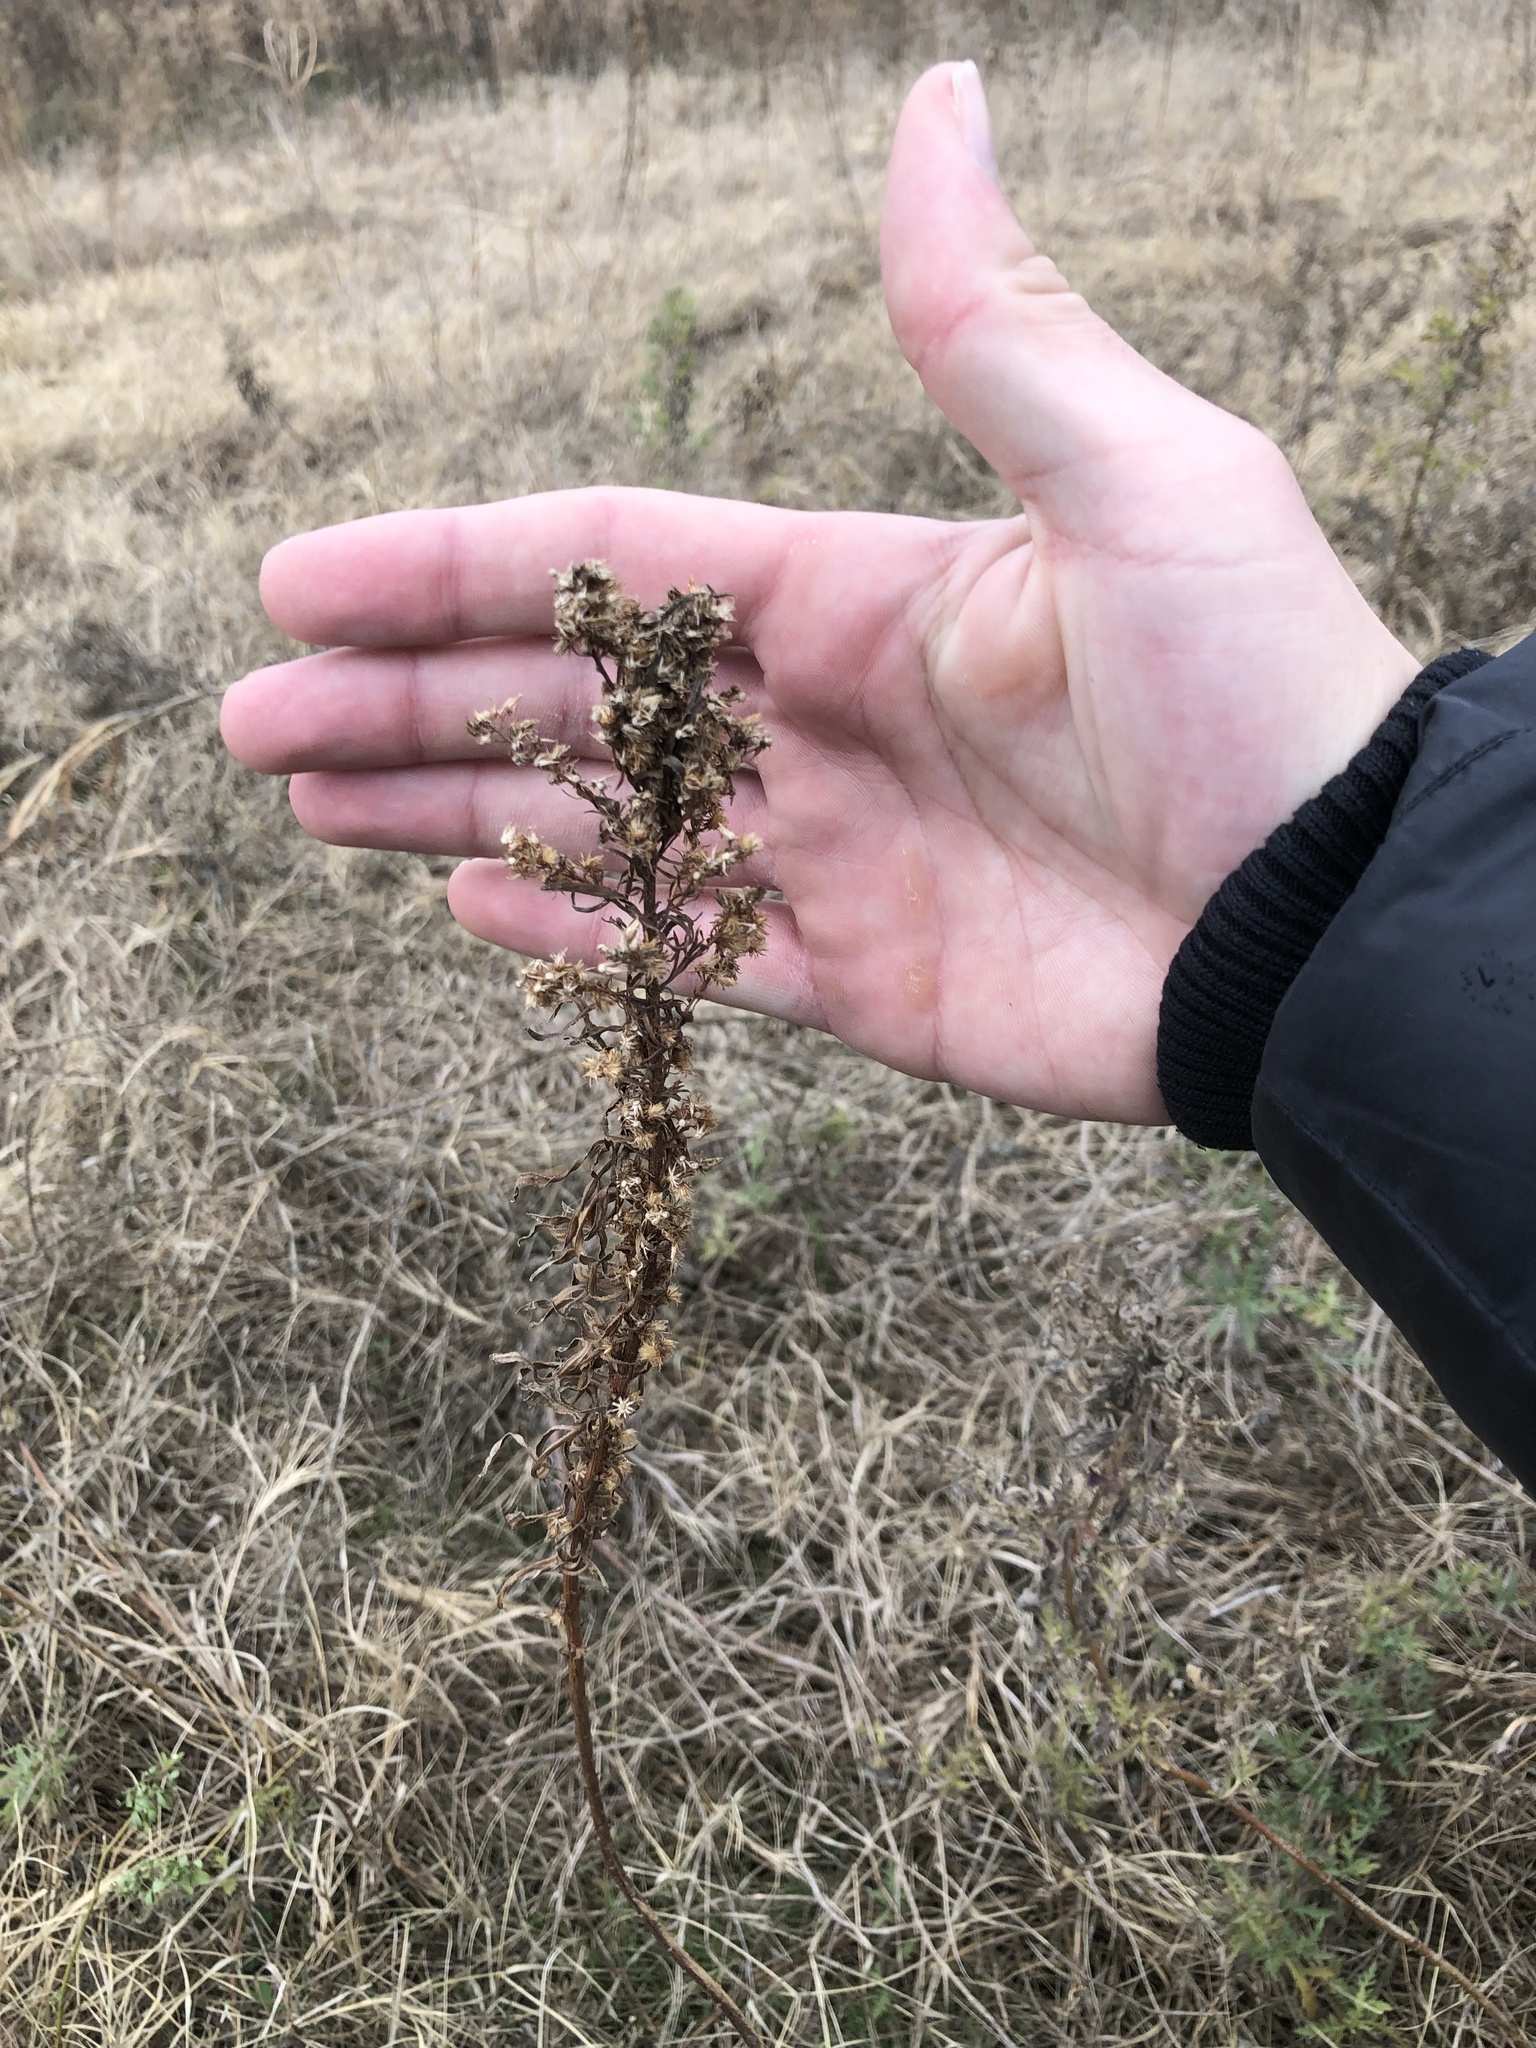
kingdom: Plantae
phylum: Tracheophyta
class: Magnoliopsida
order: Asterales
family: Asteraceae
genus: Erigeron
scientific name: Erigeron canadensis
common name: Canadian fleabane
